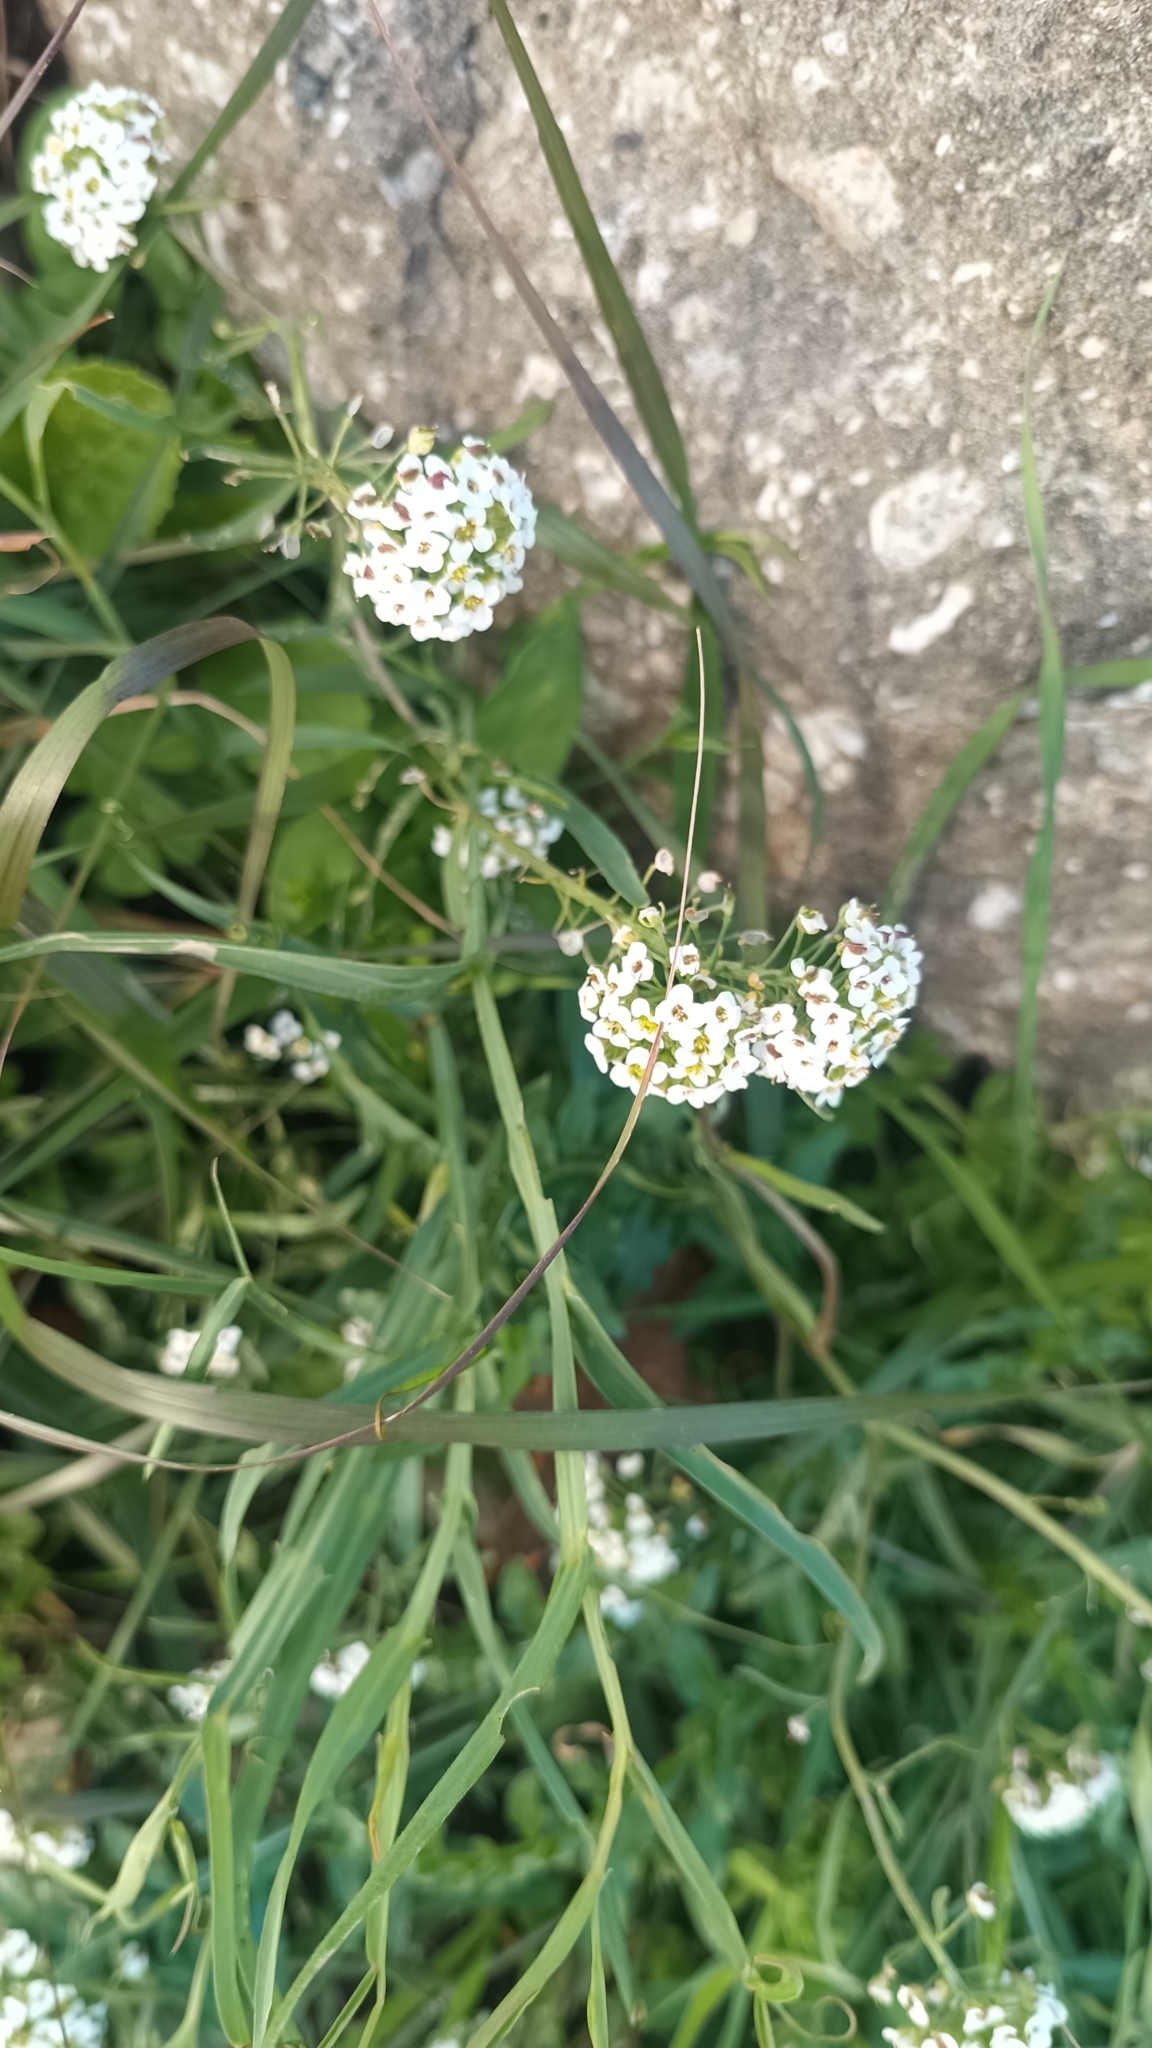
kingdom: Plantae
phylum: Tracheophyta
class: Magnoliopsida
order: Brassicales
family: Brassicaceae
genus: Lobularia
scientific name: Lobularia maritima
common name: Sweet alison
